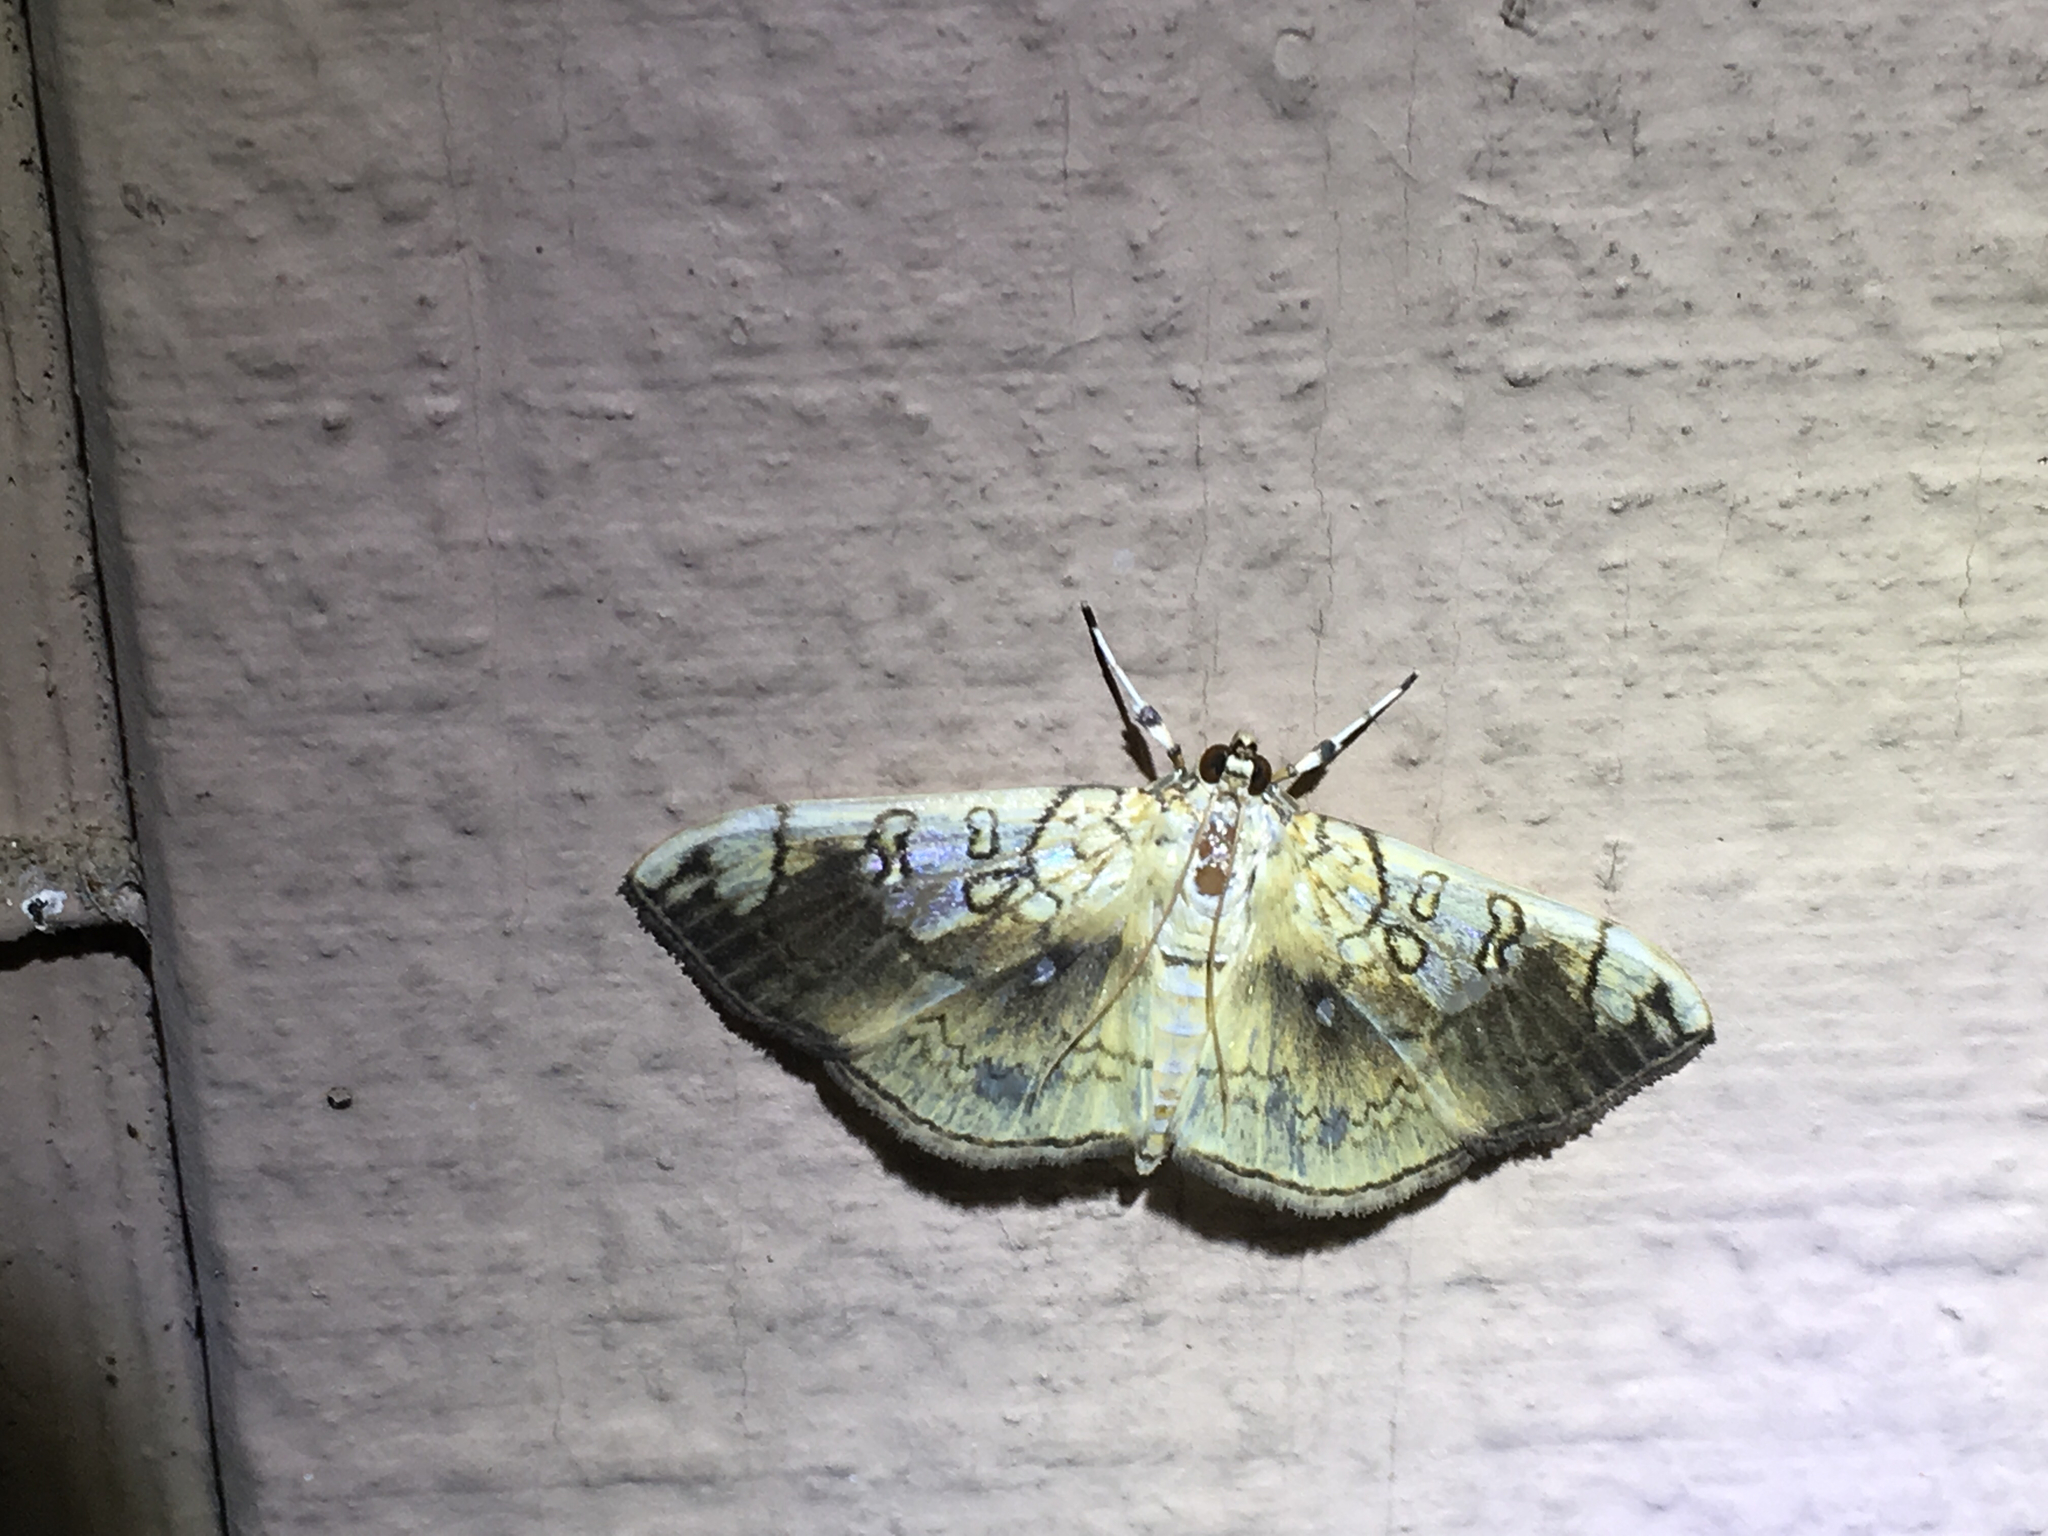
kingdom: Animalia
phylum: Arthropoda
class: Insecta
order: Lepidoptera
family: Crambidae
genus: Pantographa
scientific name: Pantographa limata
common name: Basswood leafroller moth
